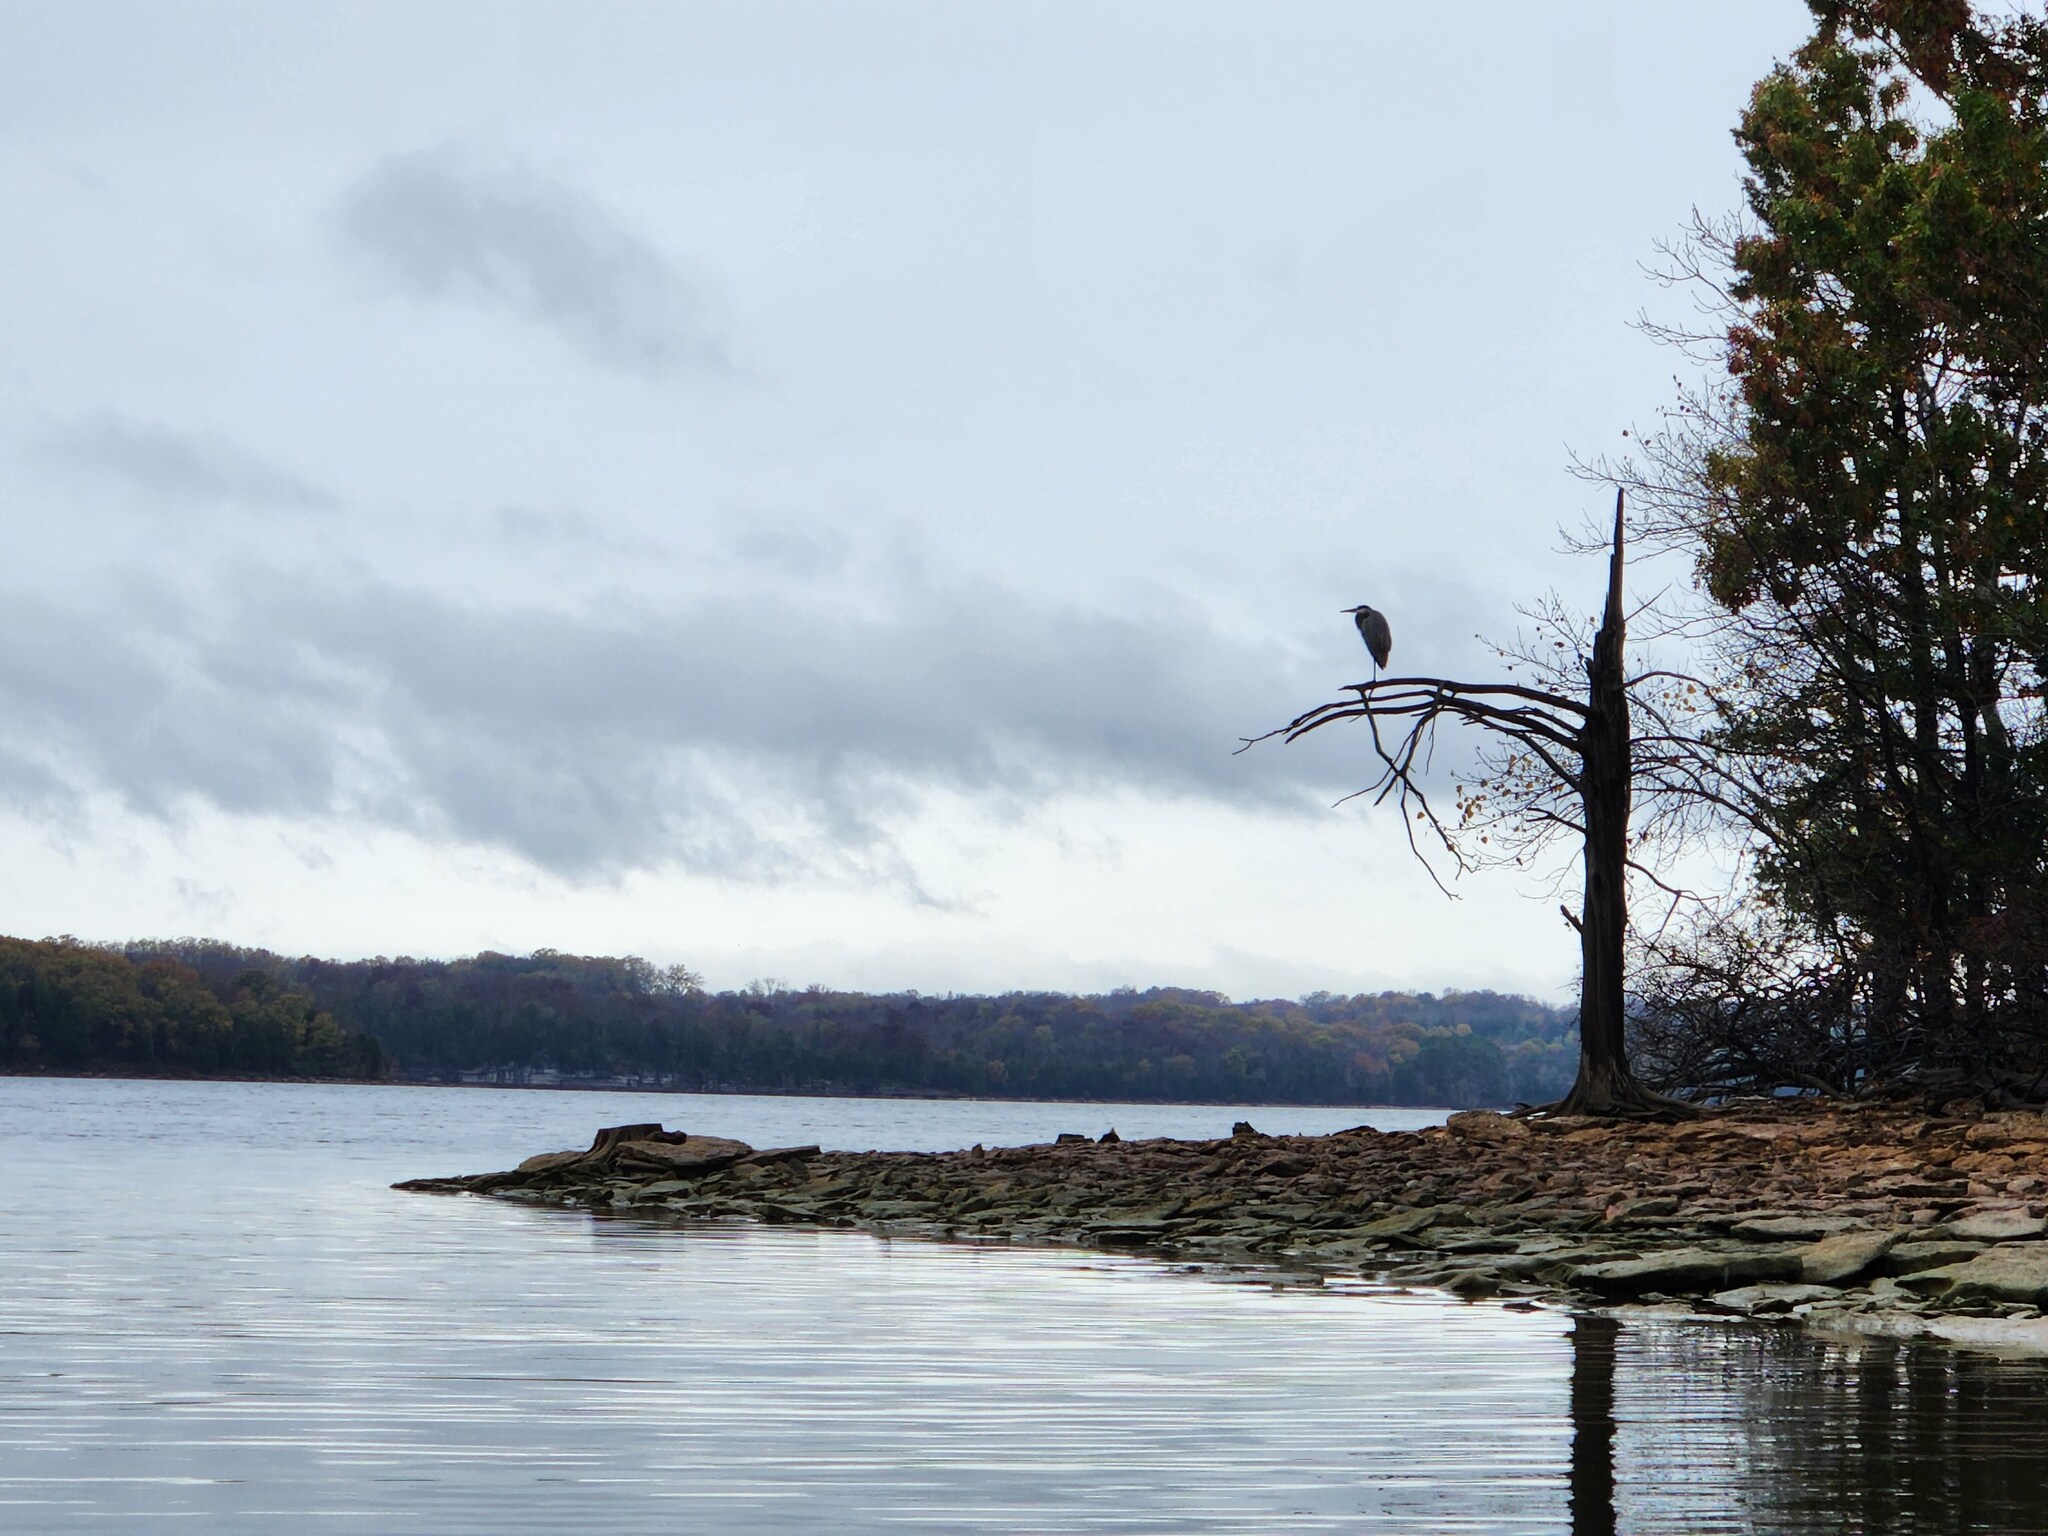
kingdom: Animalia
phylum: Chordata
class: Aves
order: Pelecaniformes
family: Ardeidae
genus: Ardea
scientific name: Ardea herodias
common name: Great blue heron
